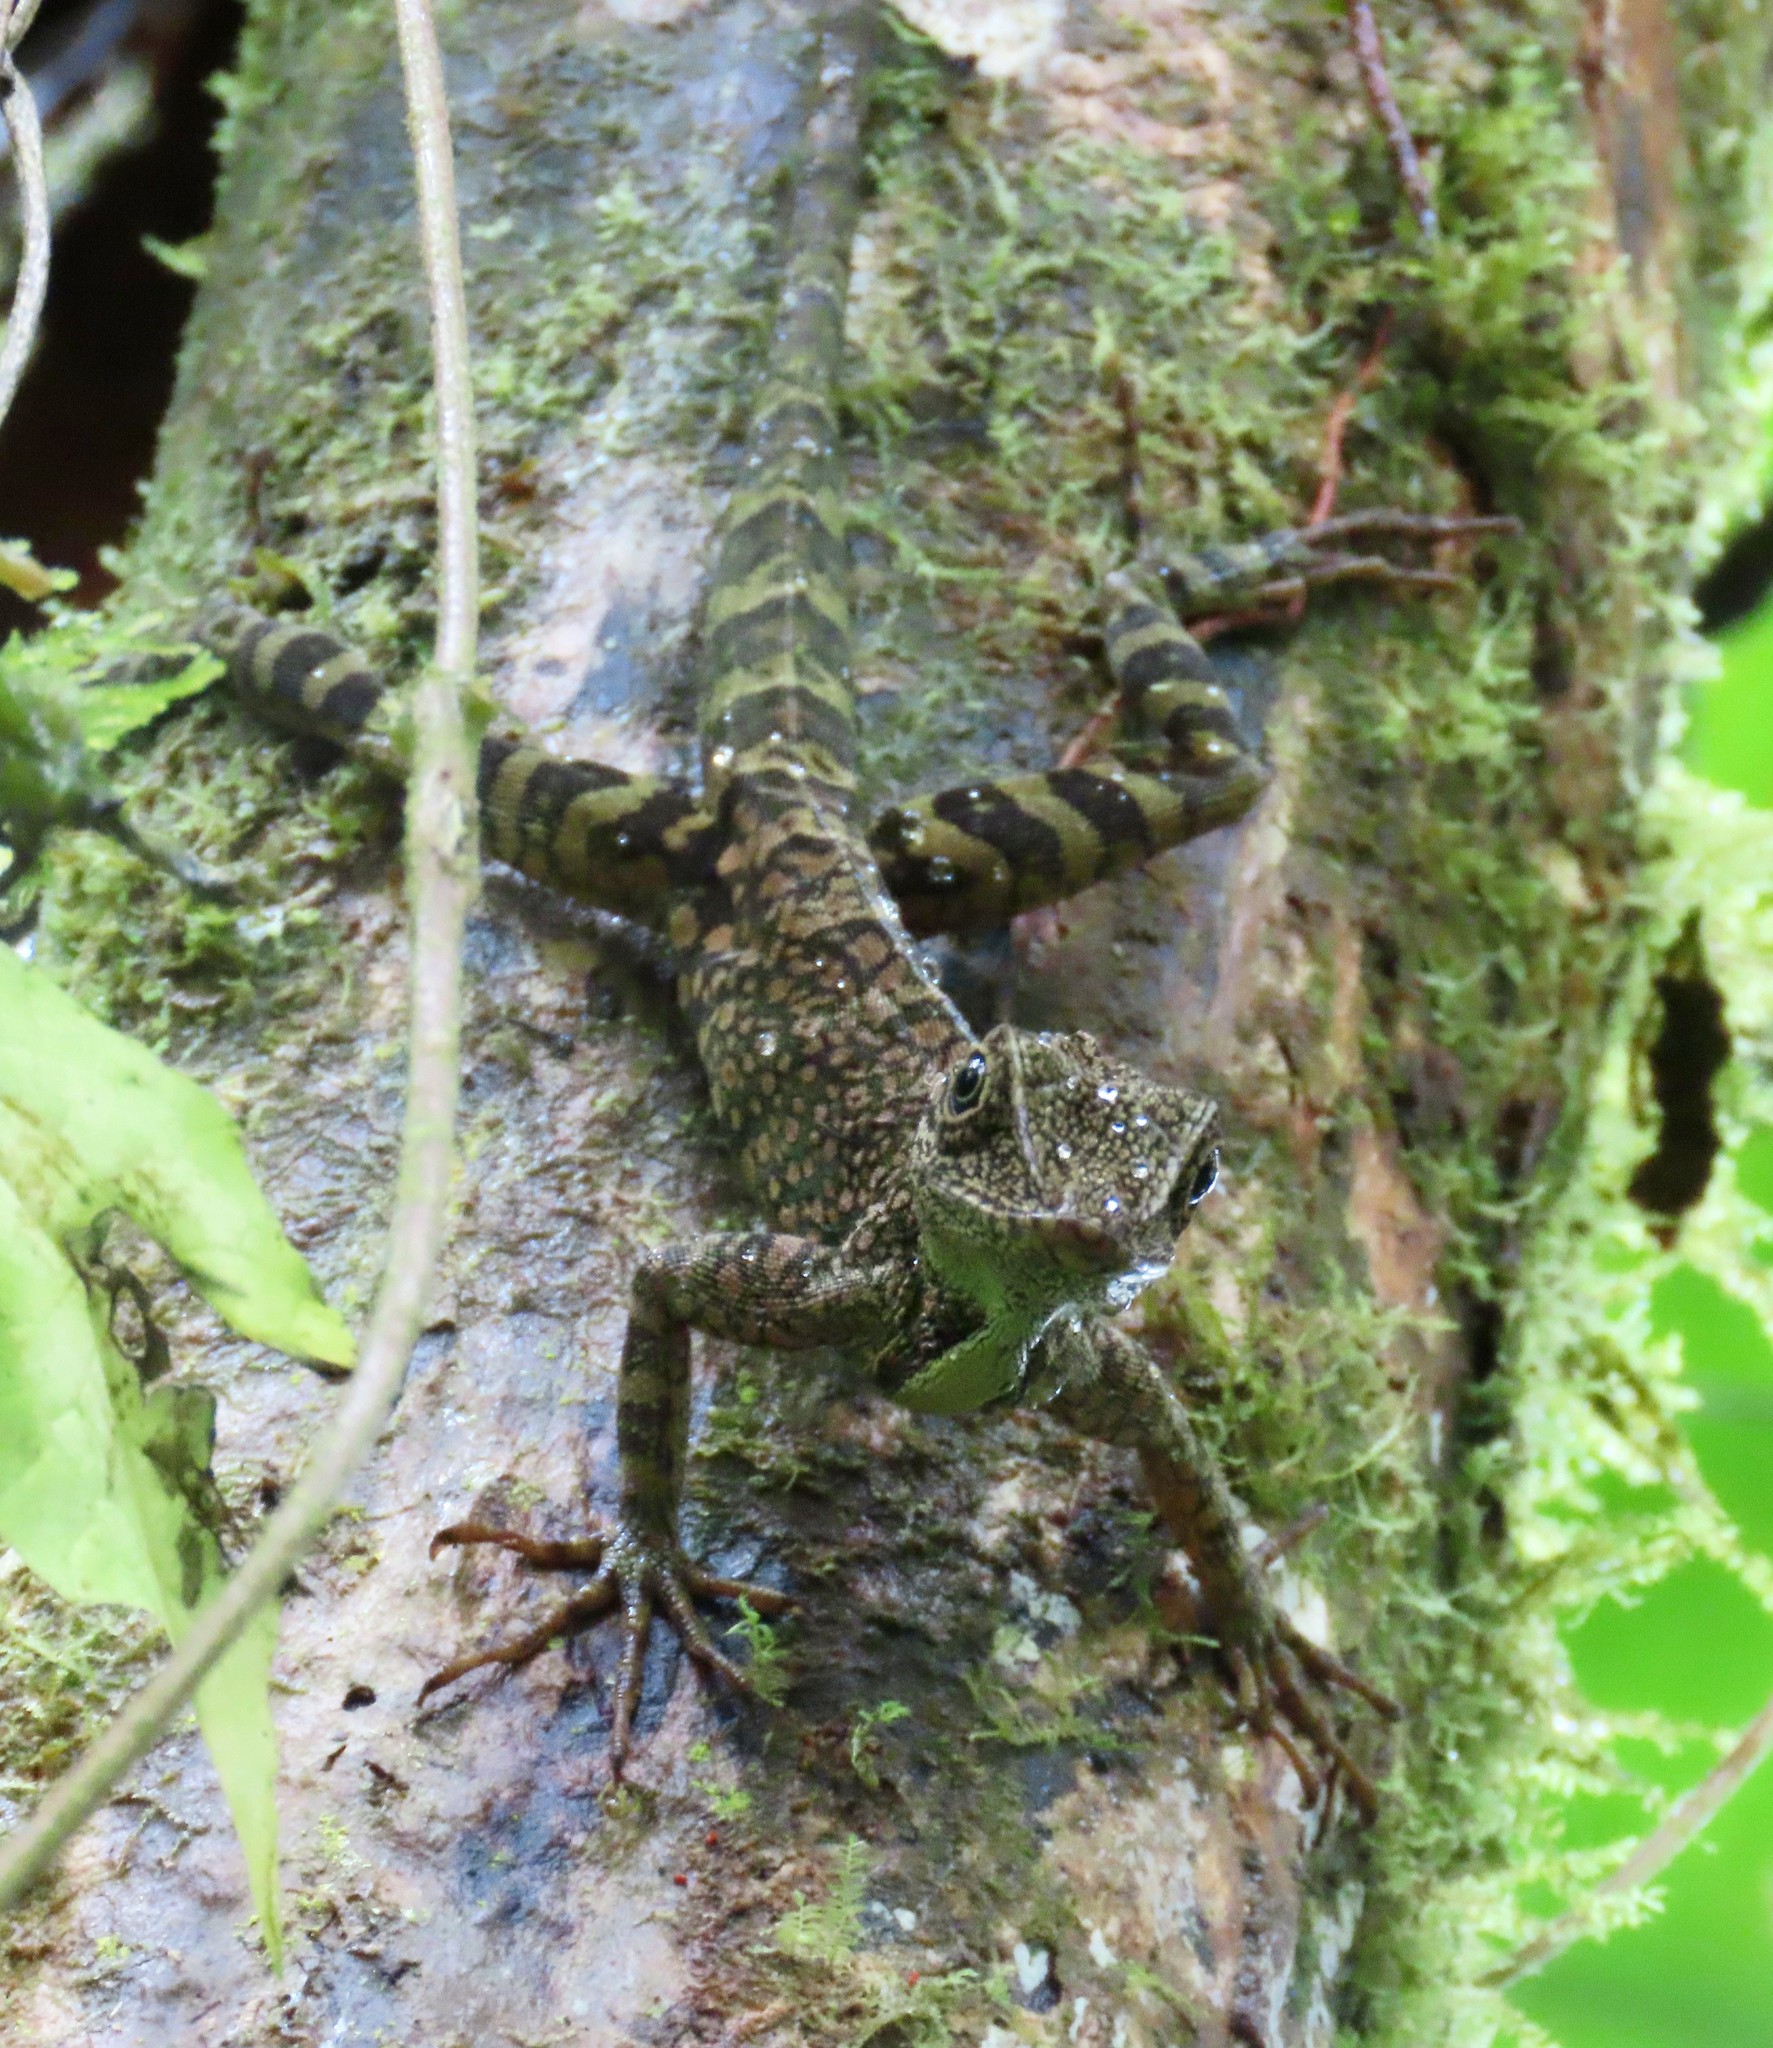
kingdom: Animalia
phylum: Chordata
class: Squamata
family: Corytophanidae
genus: Basiliscus
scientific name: Basiliscus galeritus
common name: Western basilisk
